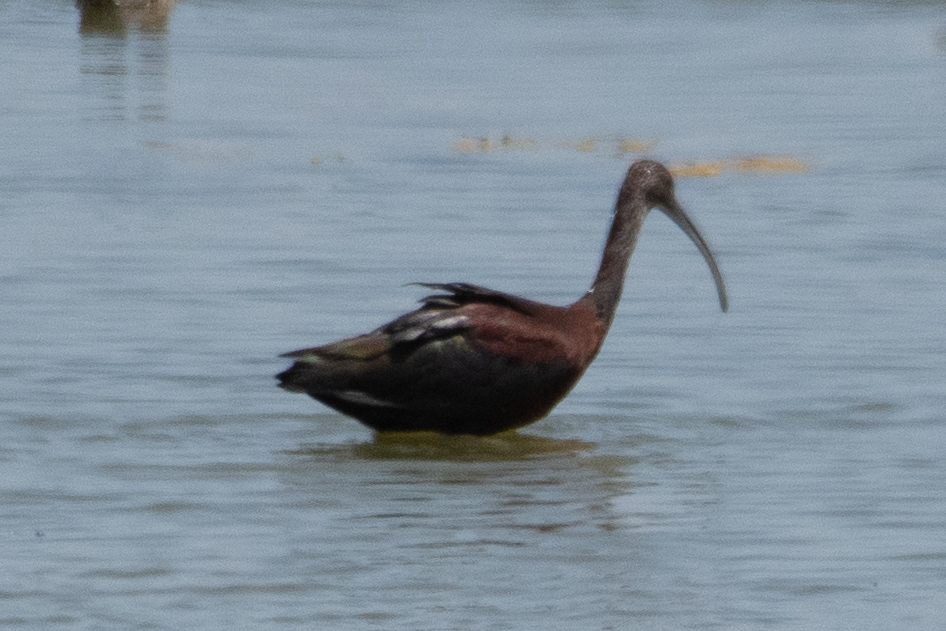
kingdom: Animalia
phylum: Chordata
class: Aves
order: Pelecaniformes
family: Threskiornithidae
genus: Plegadis
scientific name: Plegadis chihi
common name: White-faced ibis
